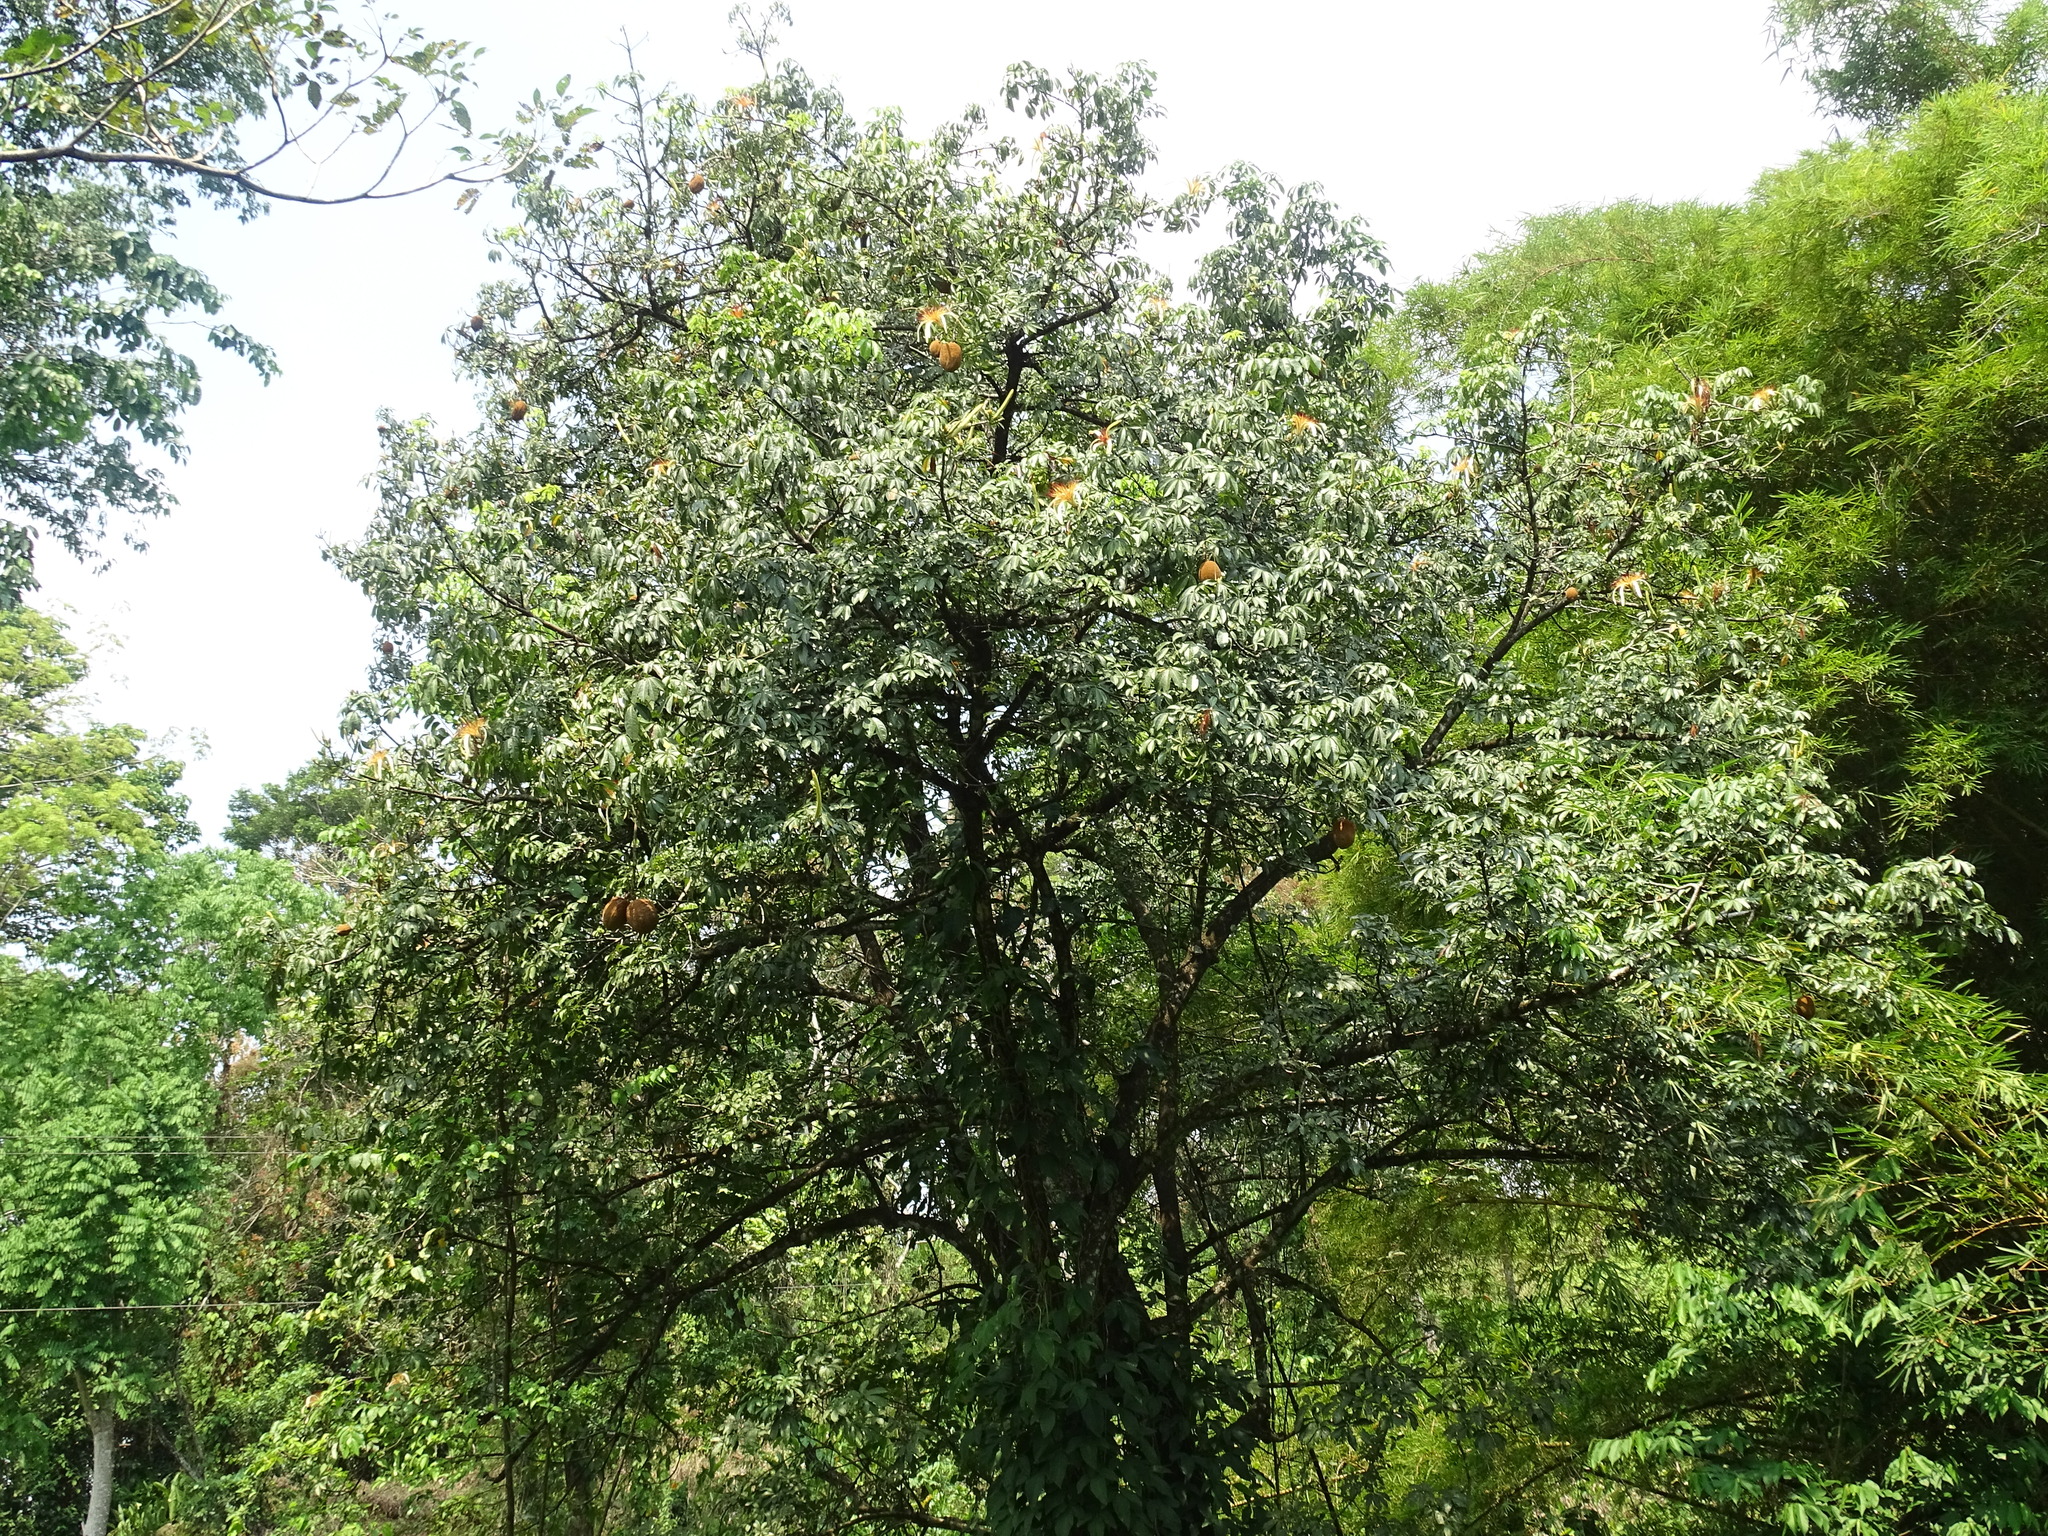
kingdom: Plantae
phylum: Tracheophyta
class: Magnoliopsida
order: Malvales
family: Malvaceae
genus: Pachira
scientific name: Pachira aquatica
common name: Provision-tree
